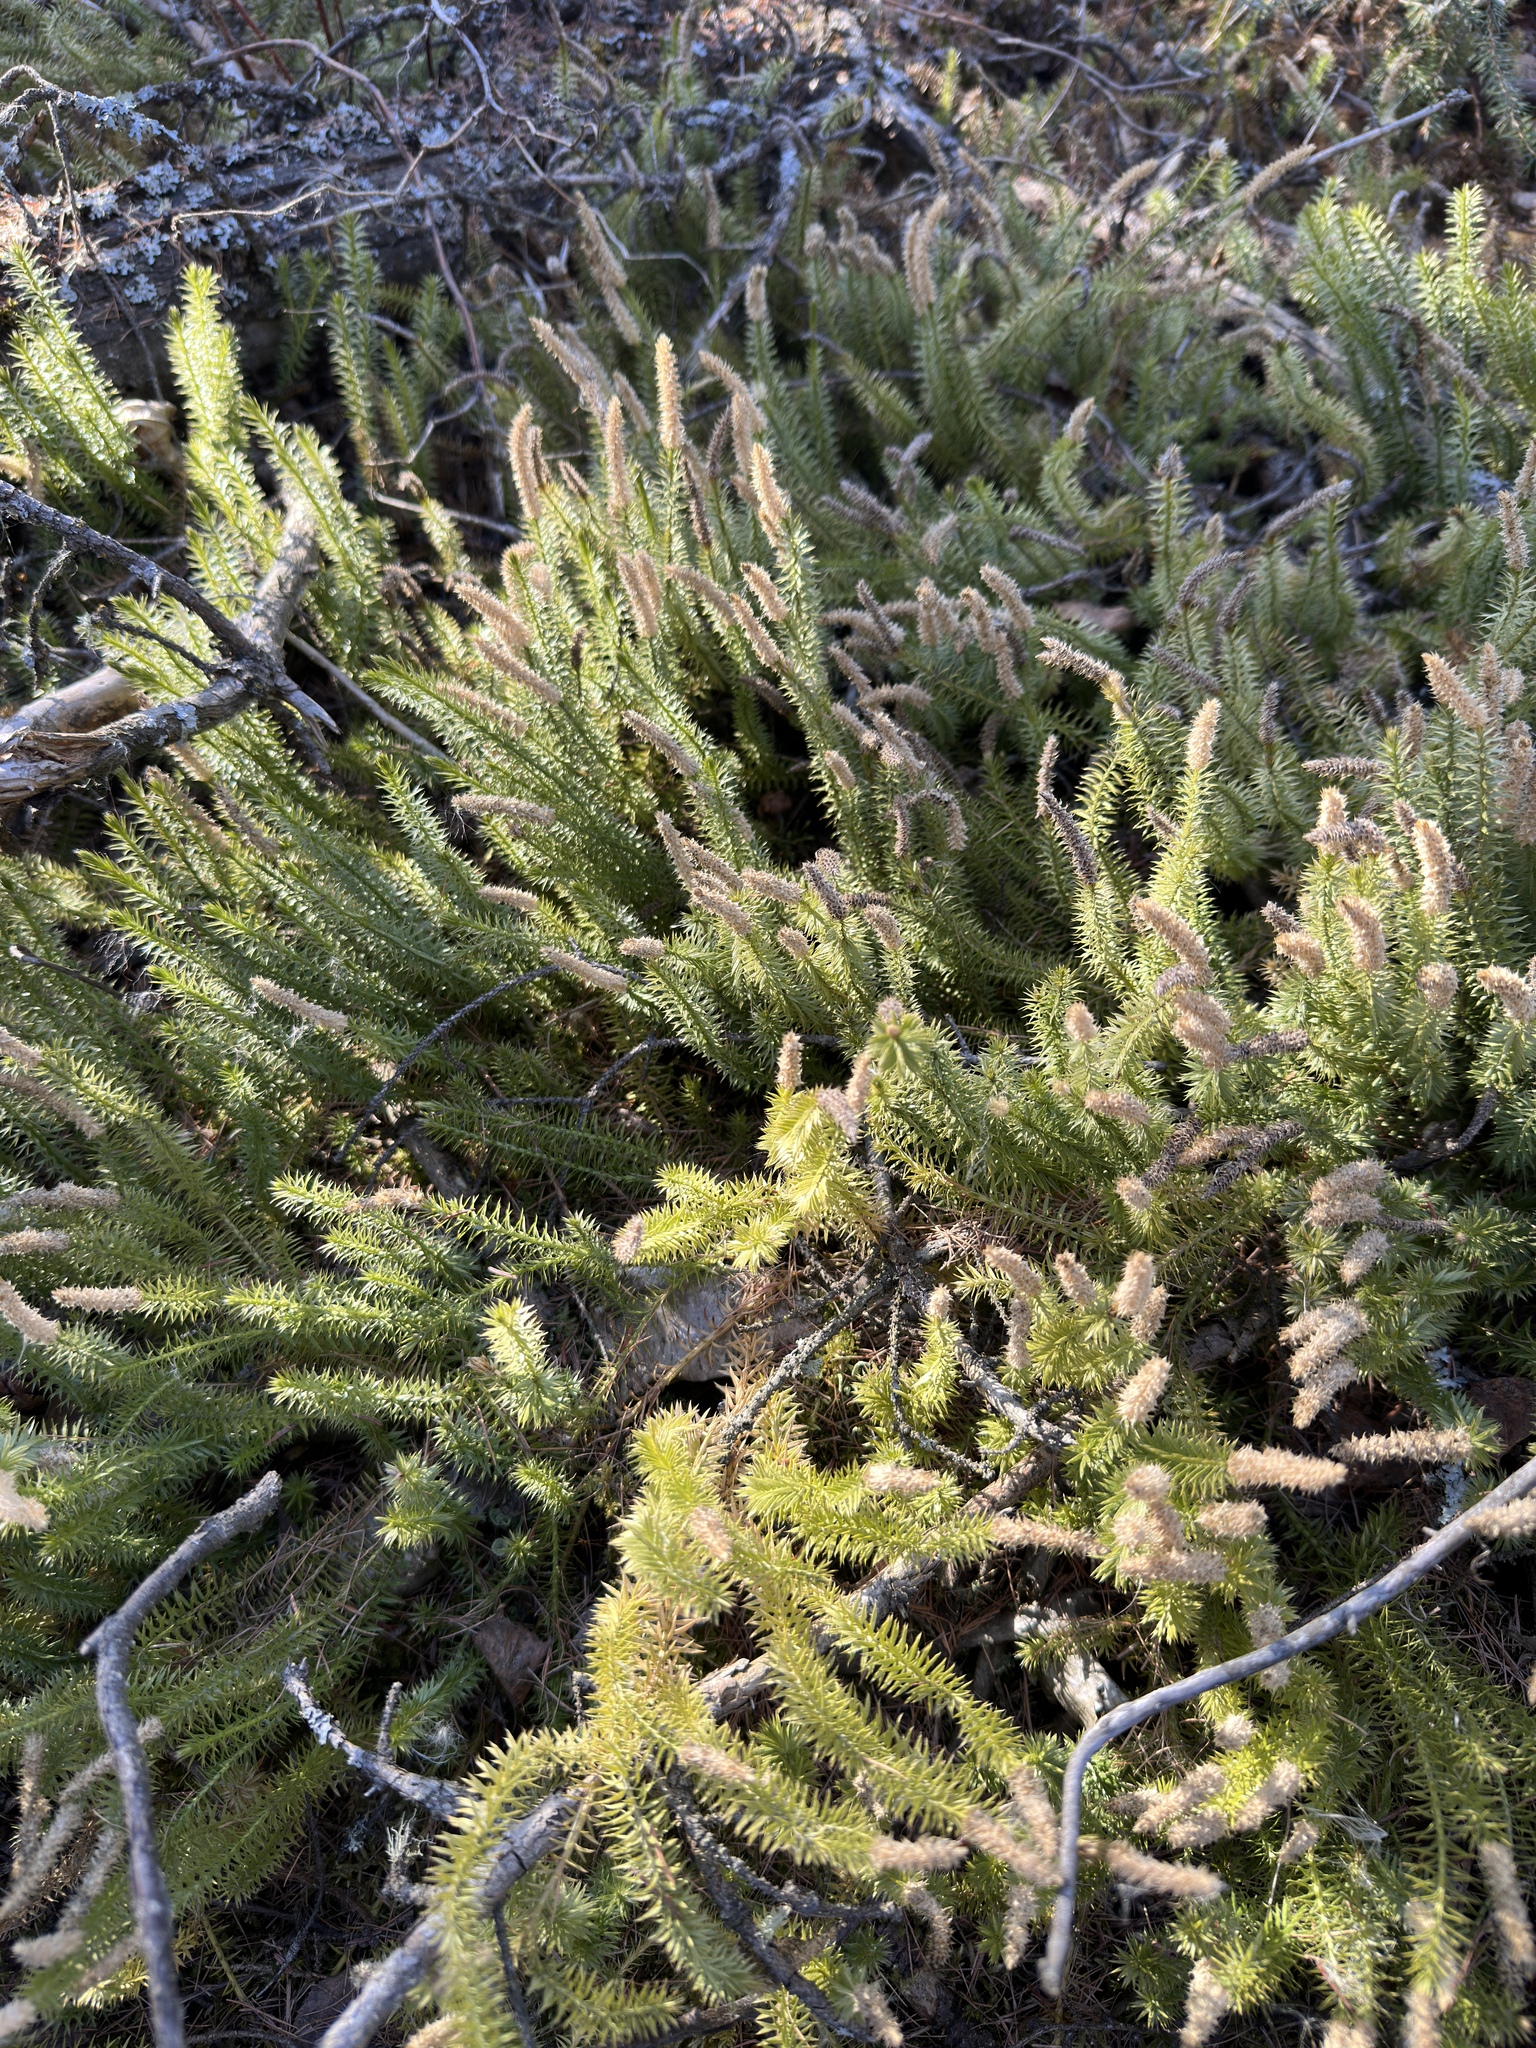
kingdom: Plantae
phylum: Tracheophyta
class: Lycopodiopsida
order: Lycopodiales
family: Lycopodiaceae
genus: Spinulum
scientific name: Spinulum annotinum
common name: Interrupted club-moss
